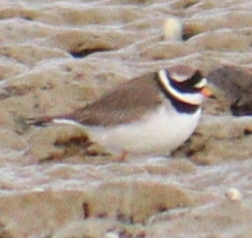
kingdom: Animalia
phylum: Chordata
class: Aves
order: Charadriiformes
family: Charadriidae
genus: Charadrius
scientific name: Charadrius hiaticula
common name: Common ringed plover
